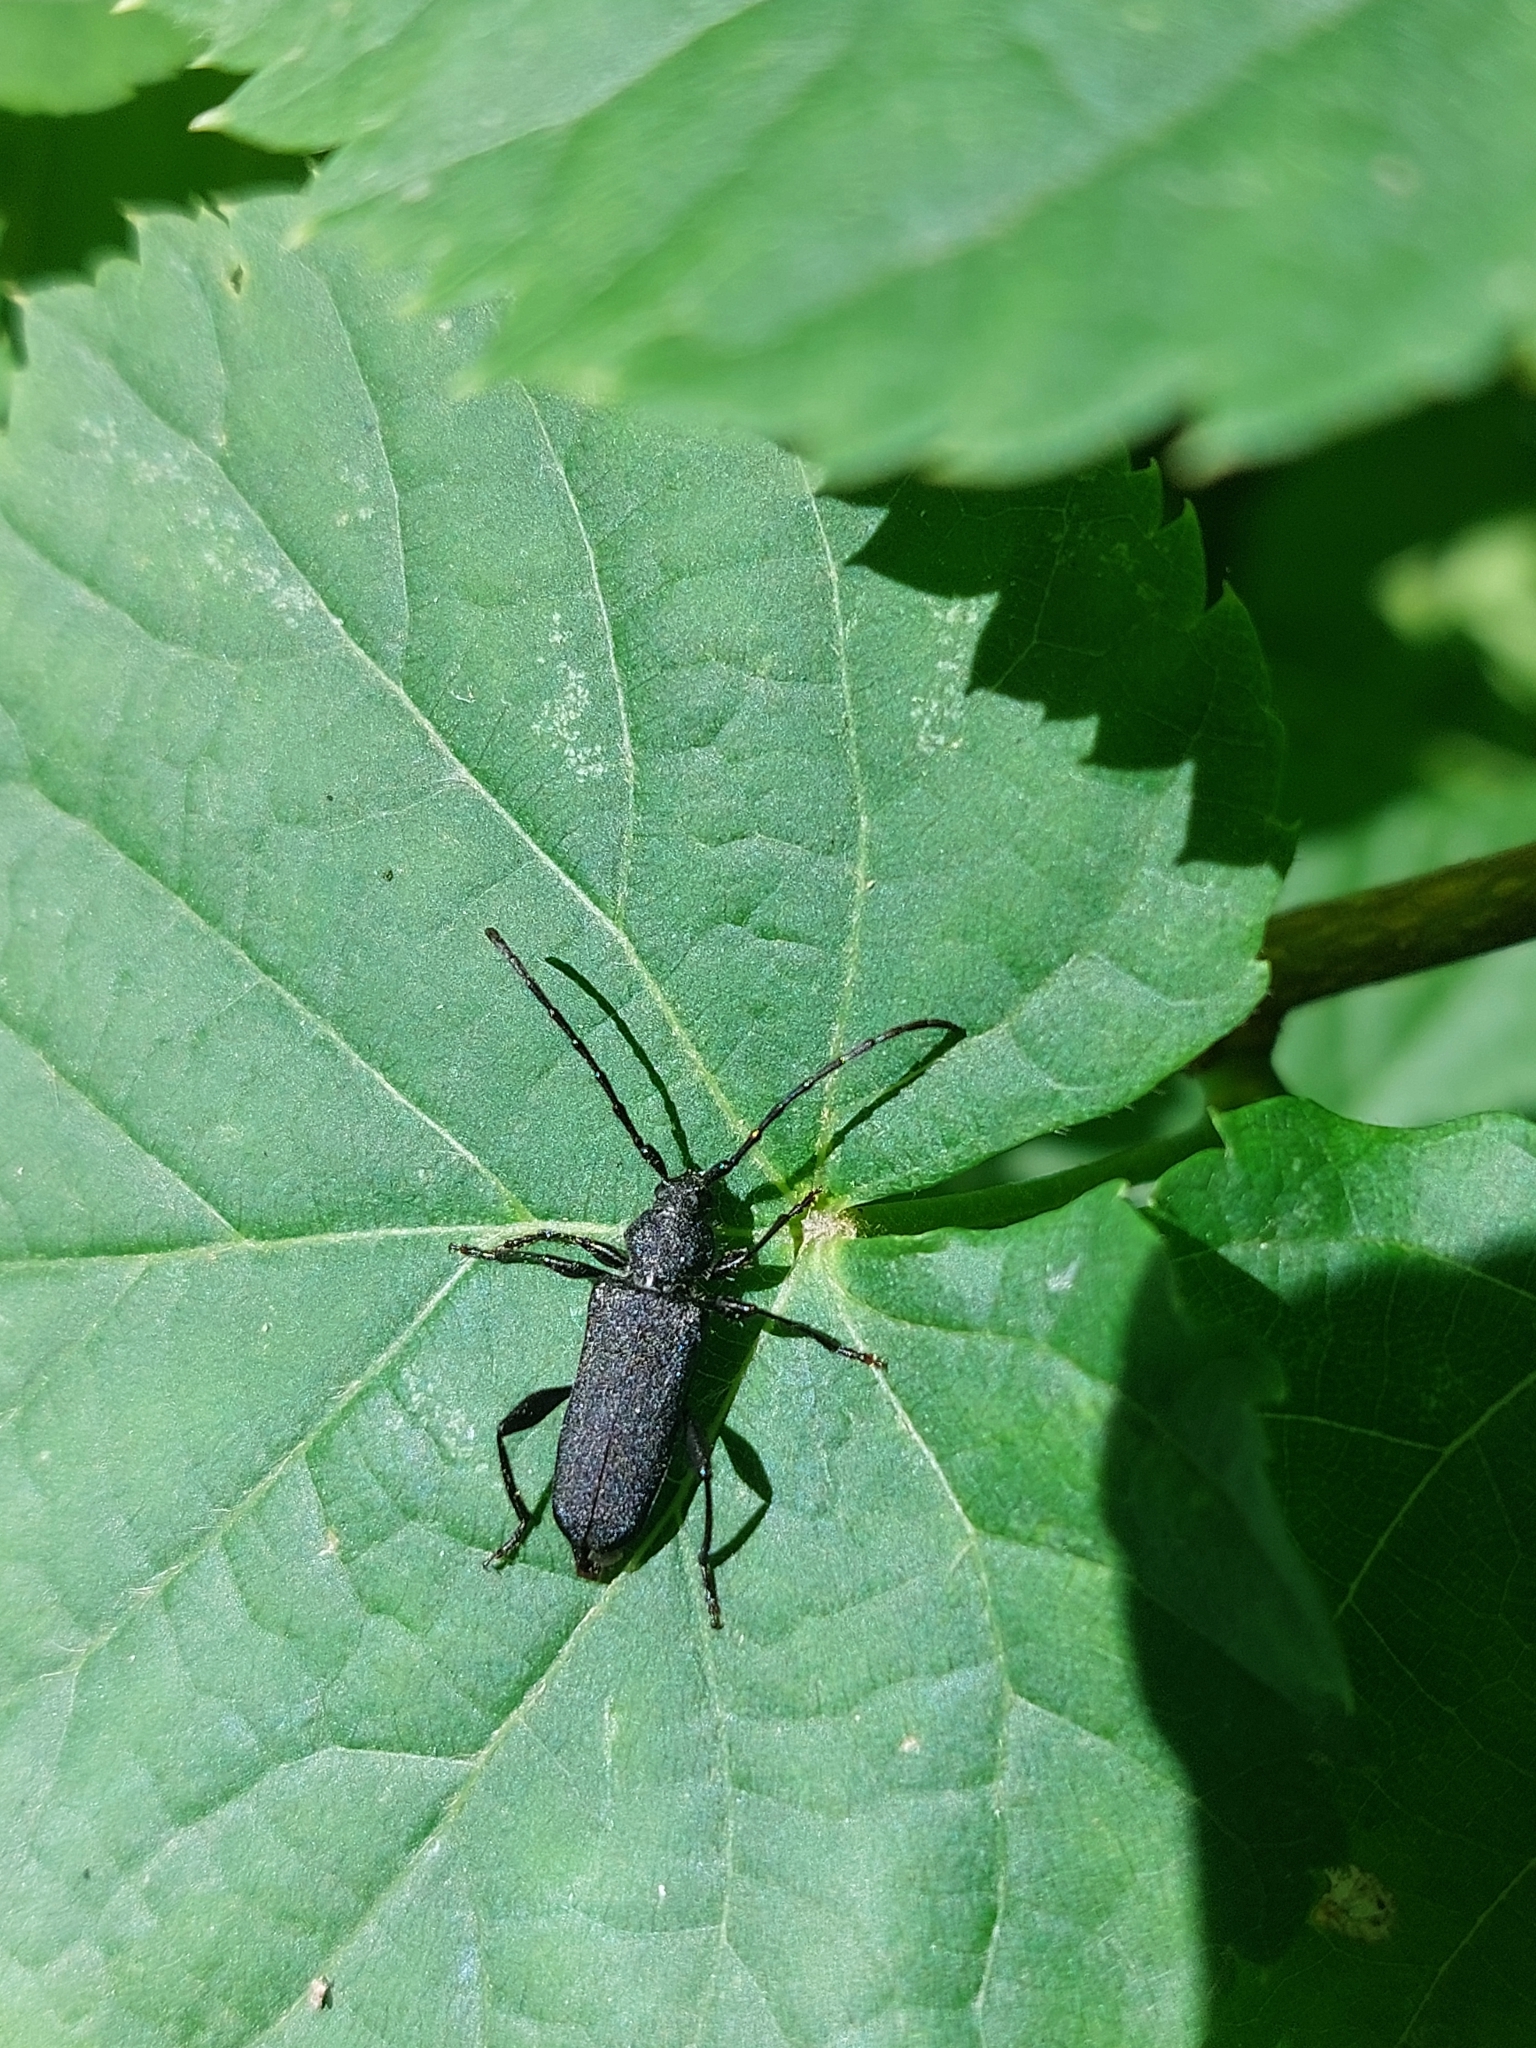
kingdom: Animalia
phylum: Arthropoda
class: Insecta
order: Coleoptera
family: Cerambycidae
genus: Ropalopus
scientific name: Ropalopus macropus
